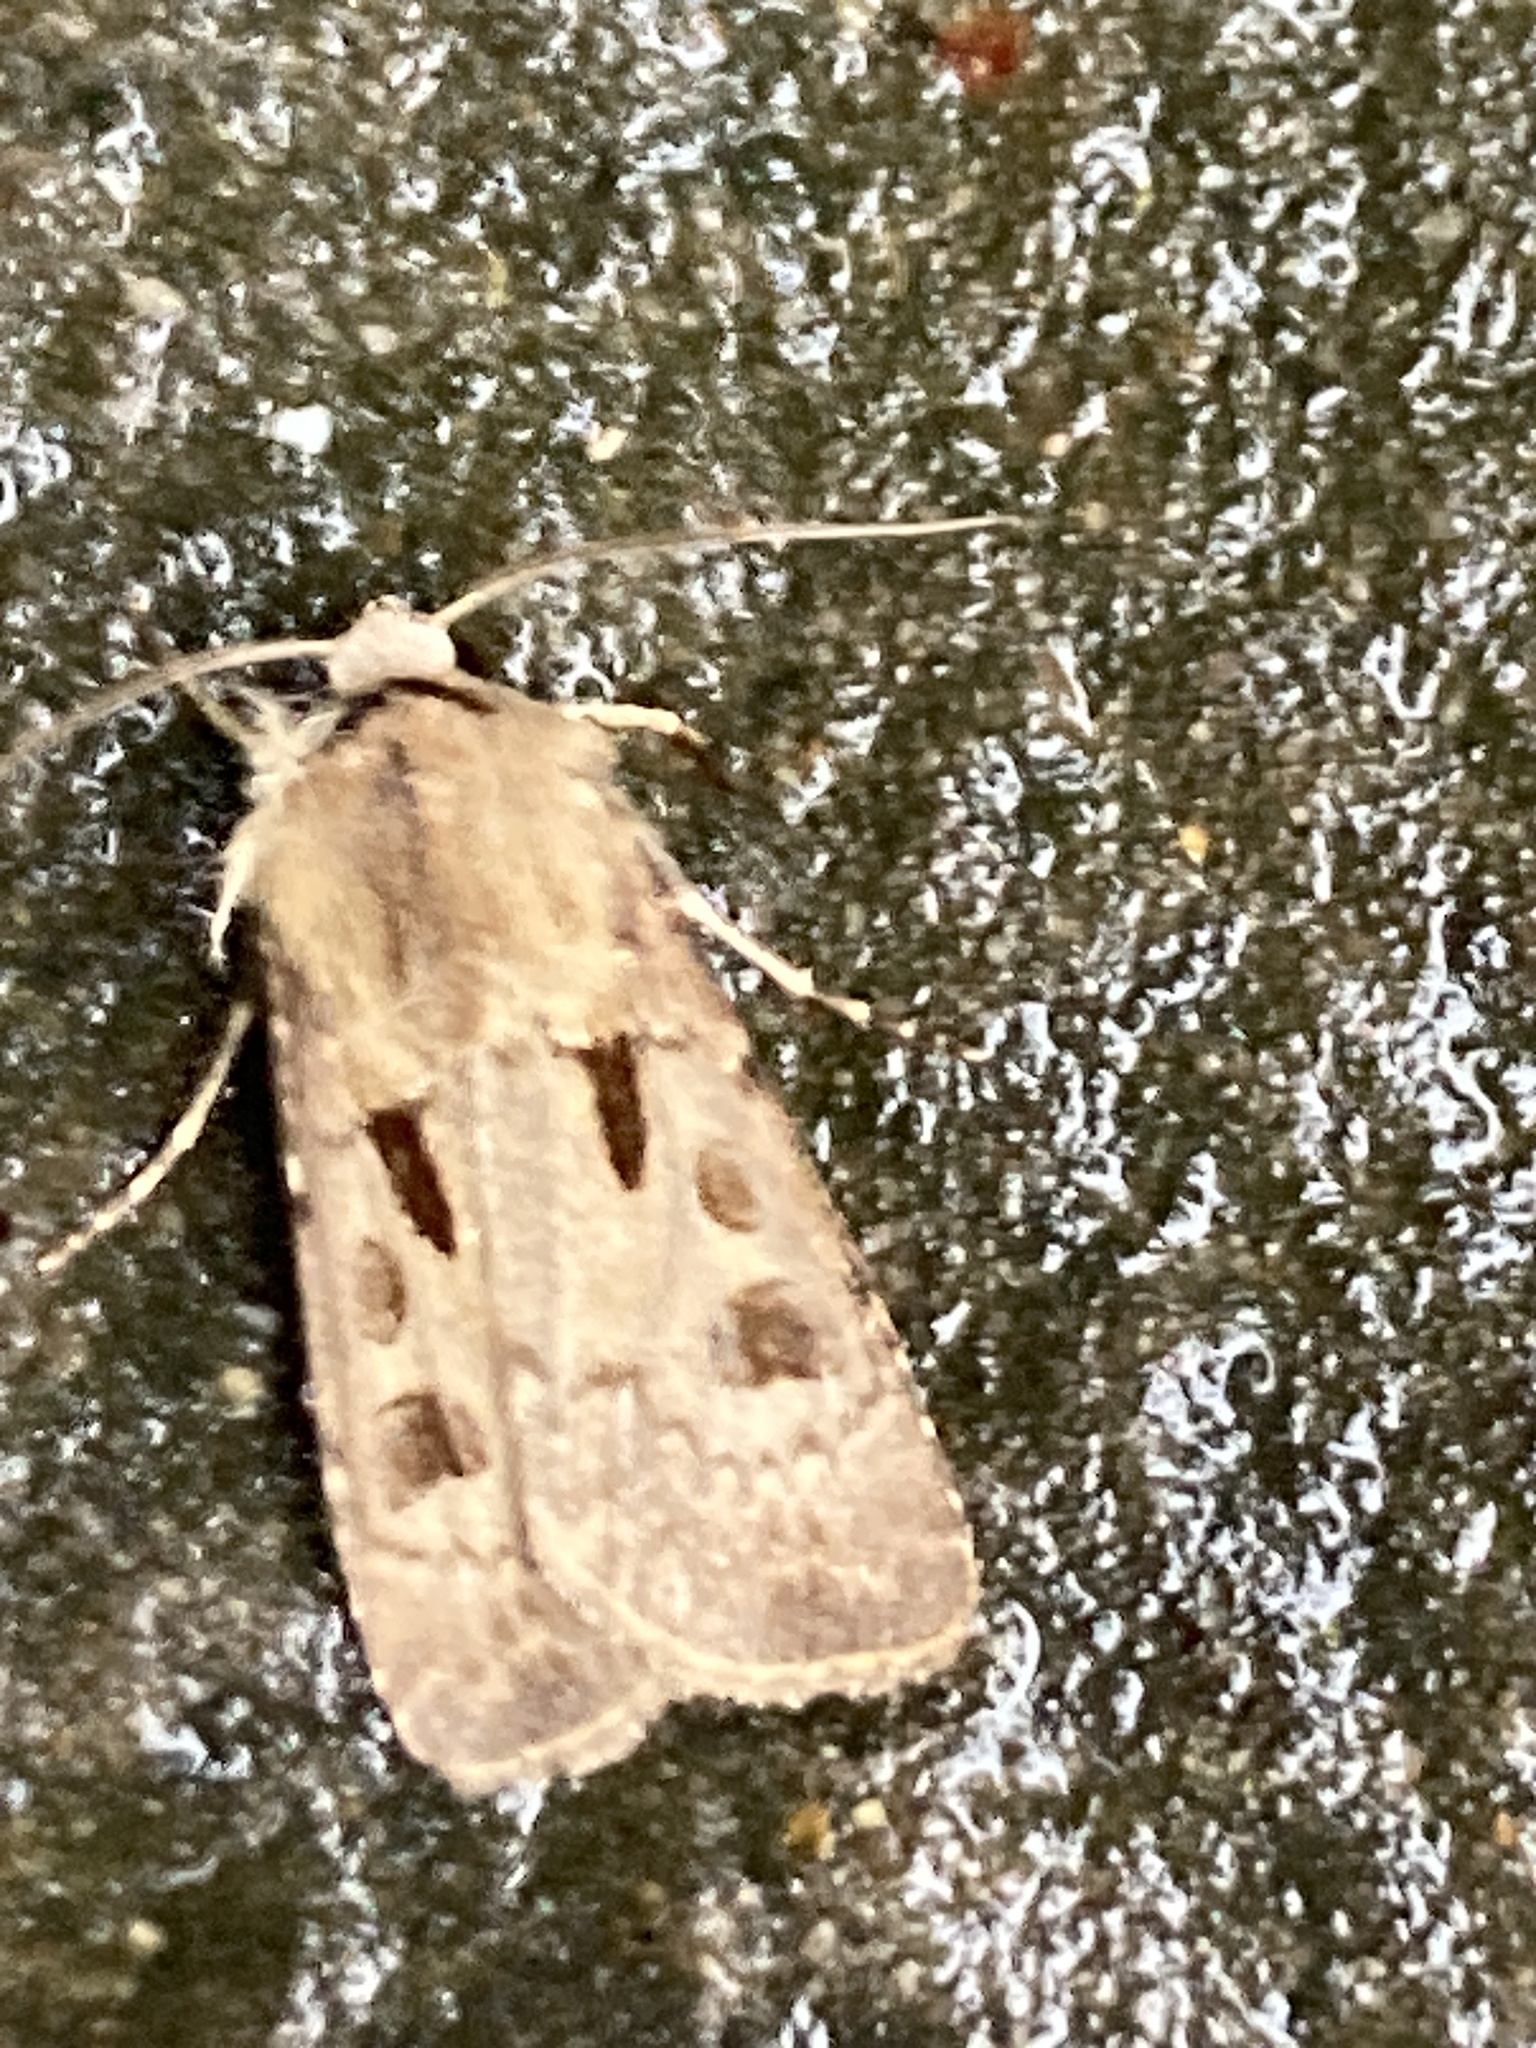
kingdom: Animalia
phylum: Arthropoda
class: Insecta
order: Lepidoptera
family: Noctuidae
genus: Agrotis
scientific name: Agrotis exclamationis
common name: Heart and dart
